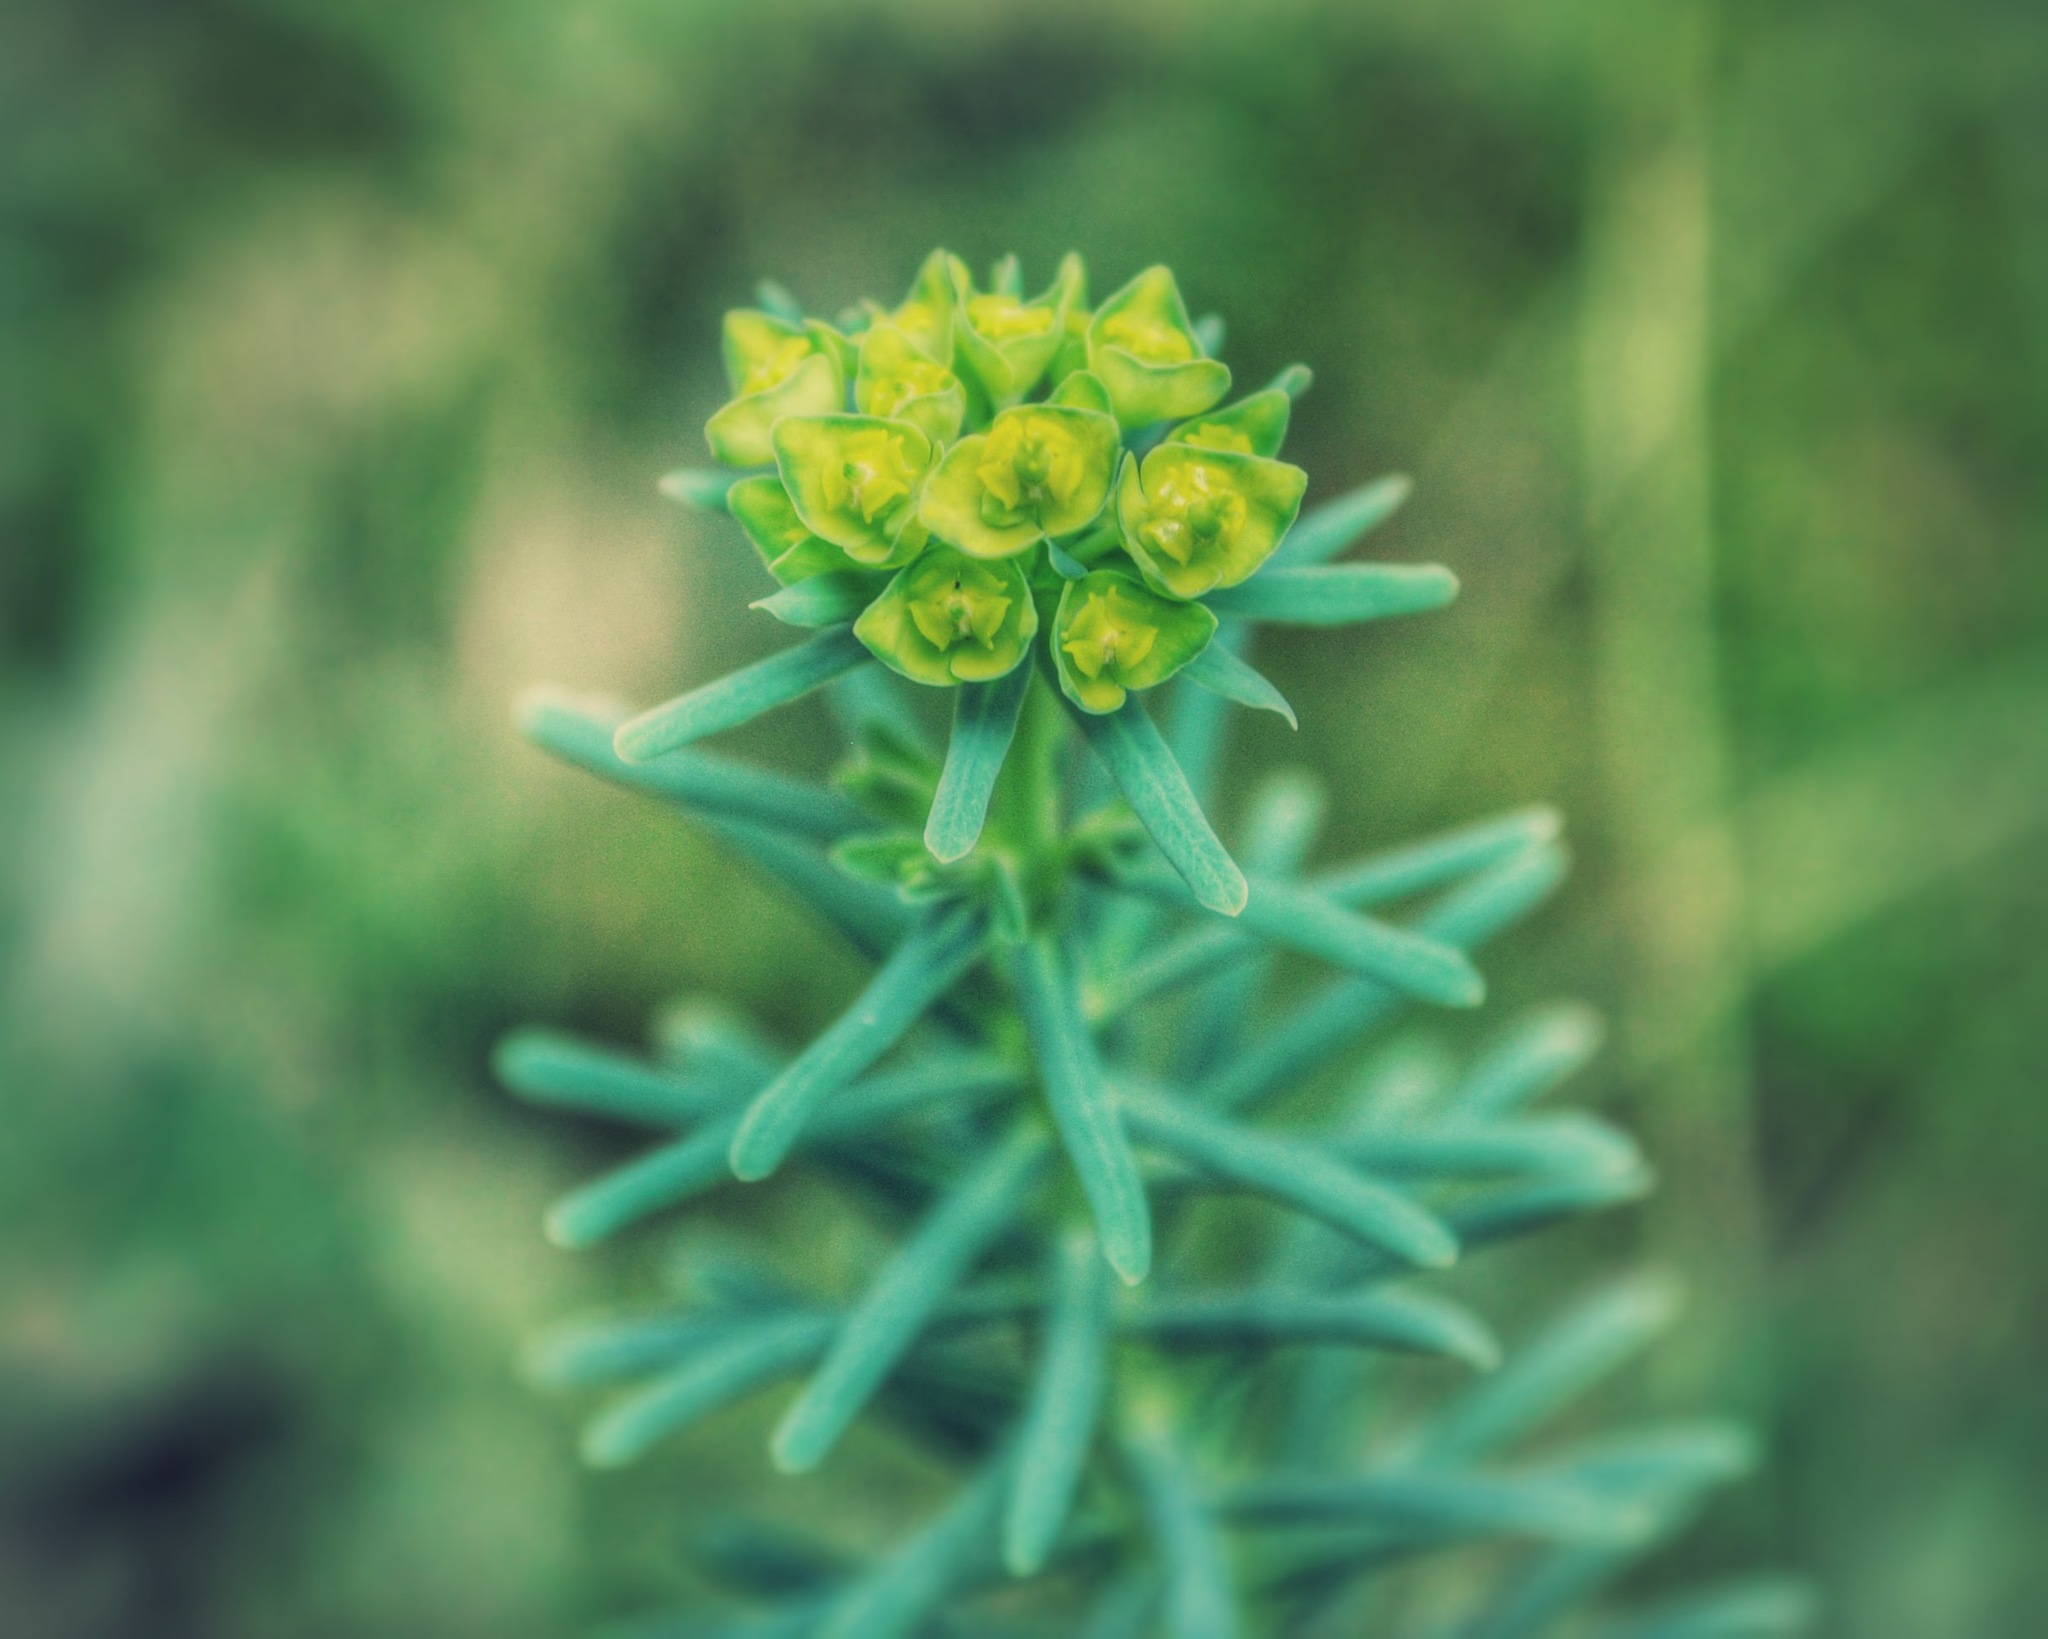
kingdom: Plantae
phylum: Tracheophyta
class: Magnoliopsida
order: Malpighiales
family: Euphorbiaceae
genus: Euphorbia
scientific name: Euphorbia cyparissias
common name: Cypress spurge
